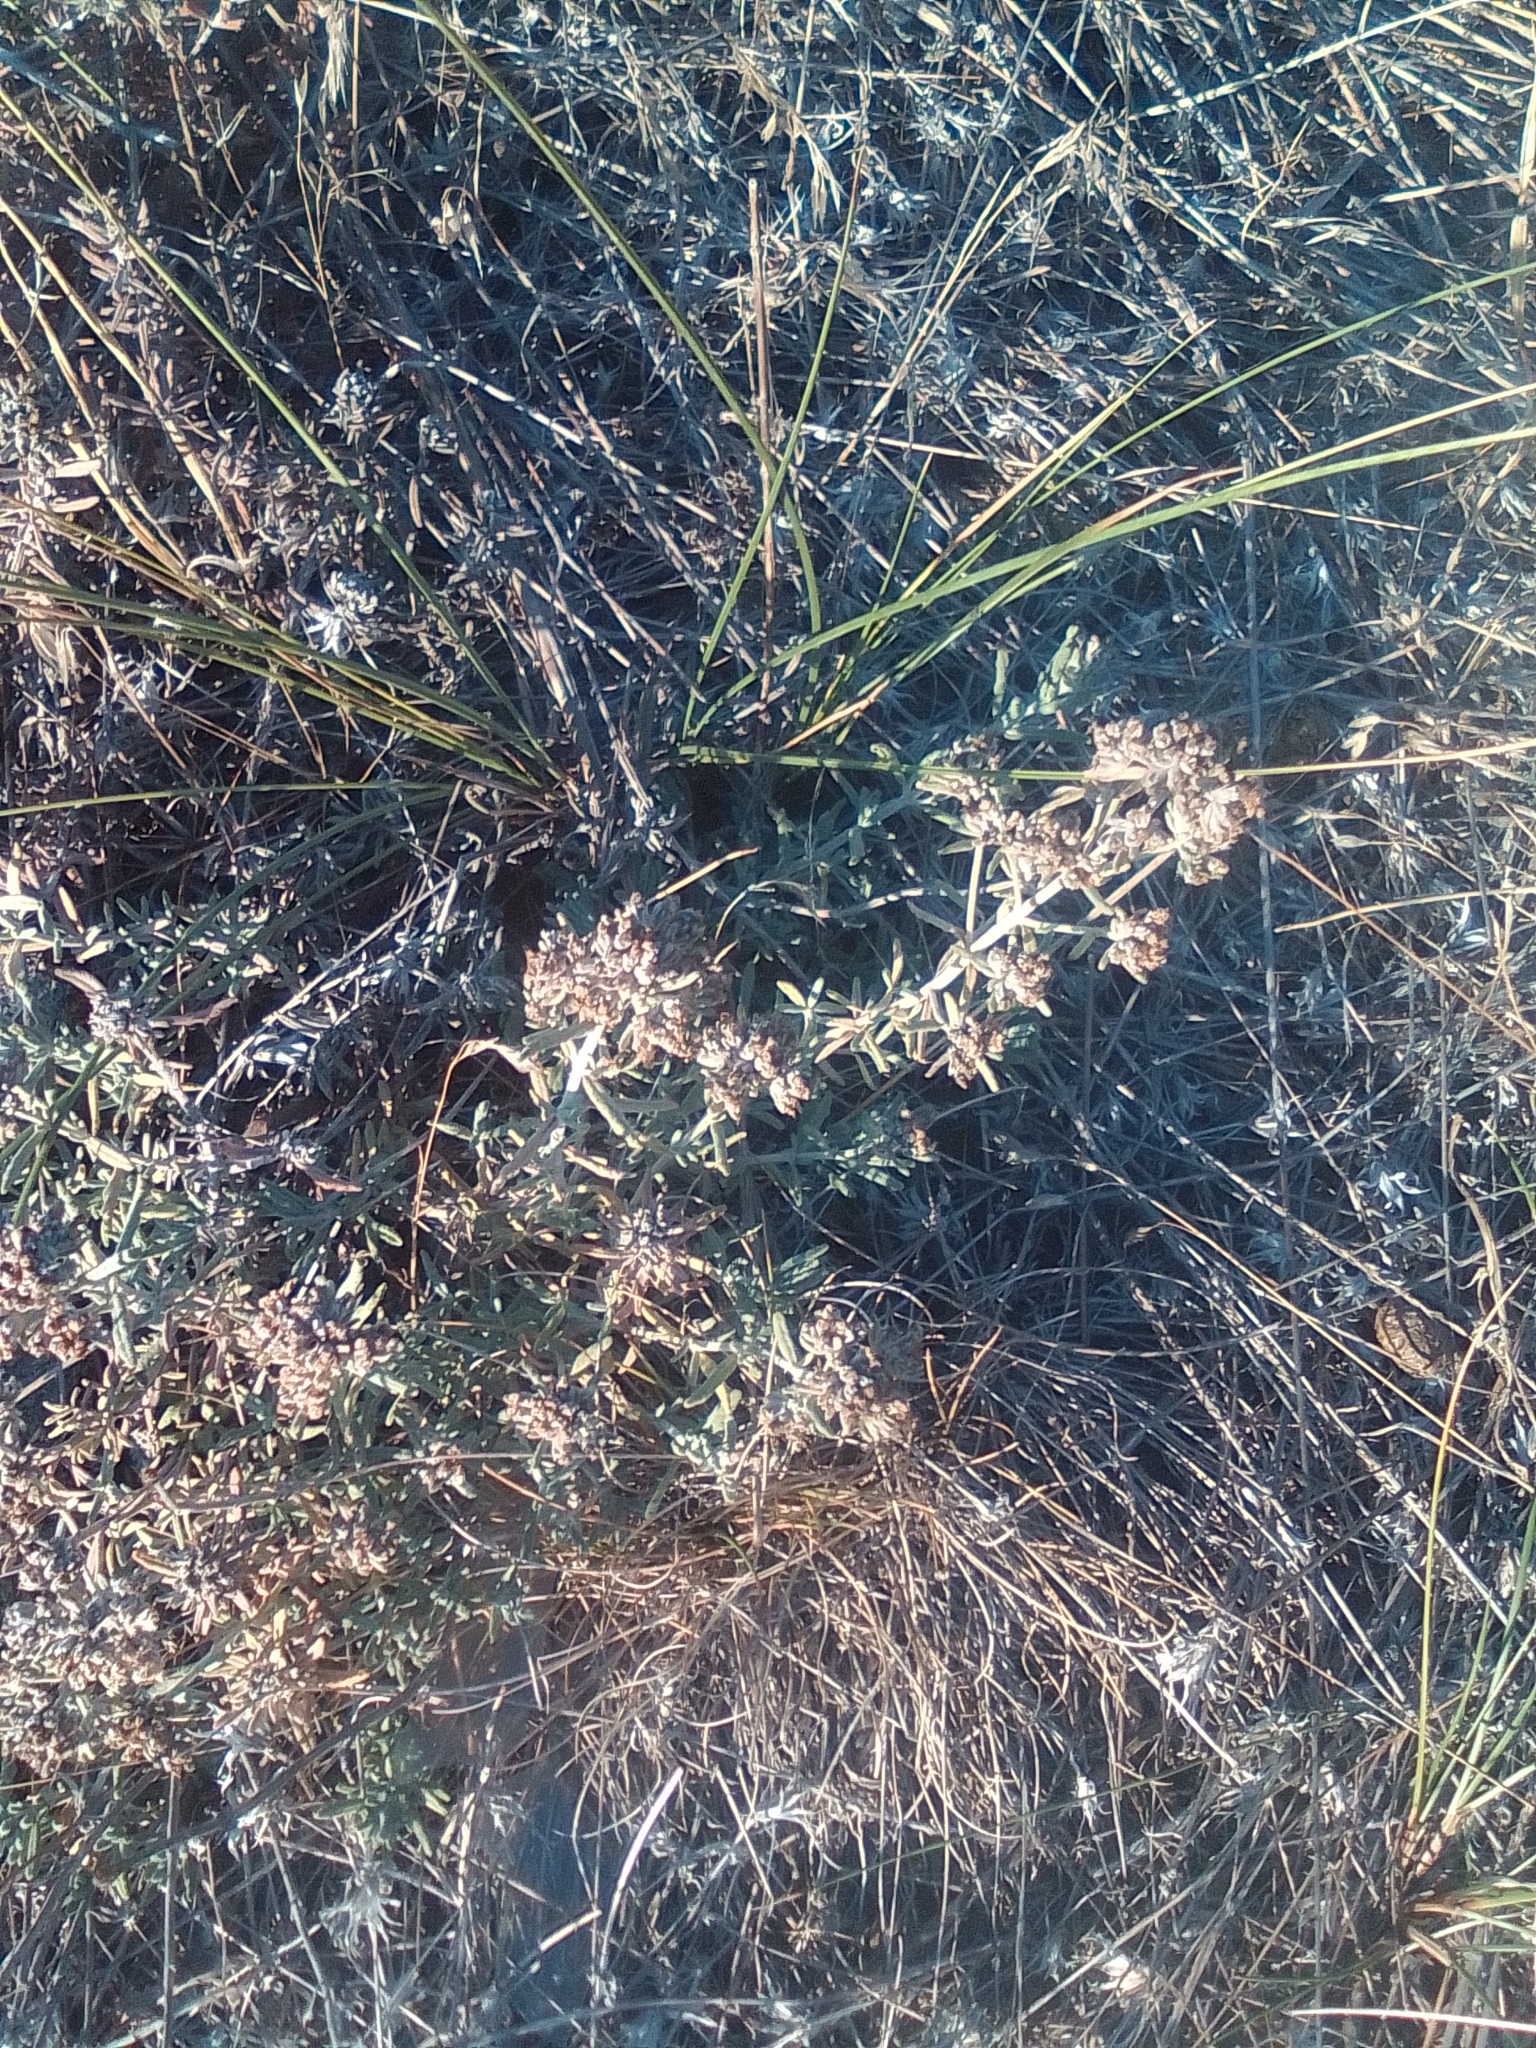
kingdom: Plantae
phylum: Tracheophyta
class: Magnoliopsida
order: Lamiales
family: Lamiaceae
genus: Teucrium
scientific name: Teucrium polium
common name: Poley
